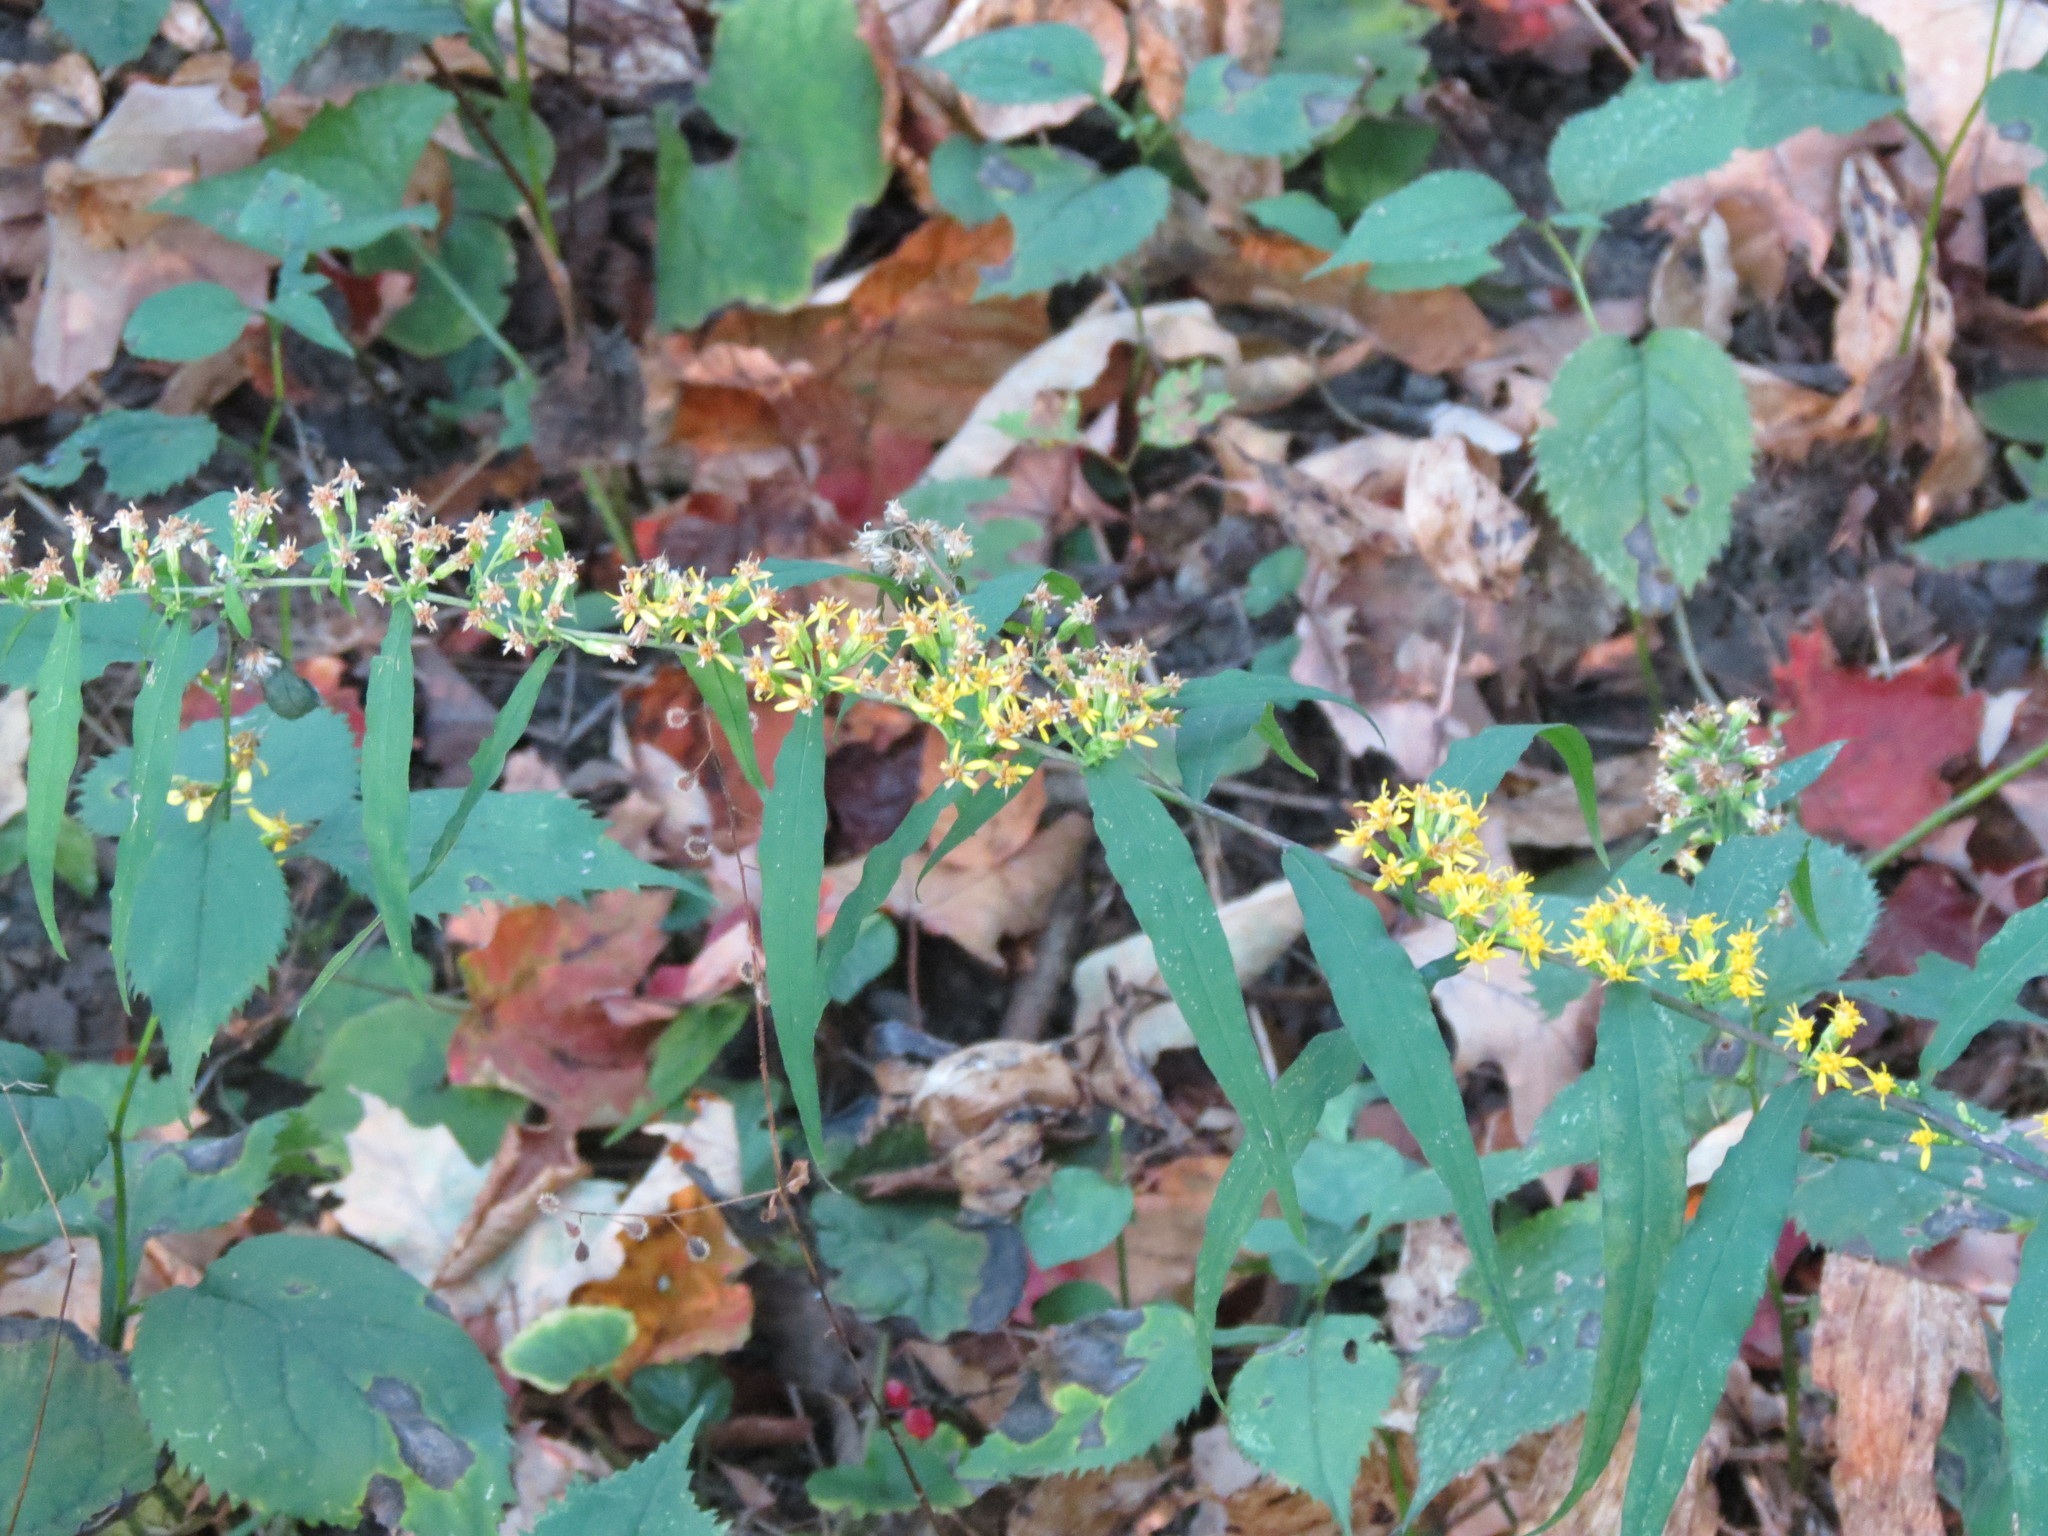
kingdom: Plantae
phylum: Tracheophyta
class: Magnoliopsida
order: Asterales
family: Asteraceae
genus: Solidago
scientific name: Solidago caesia
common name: Woodland goldenrod
